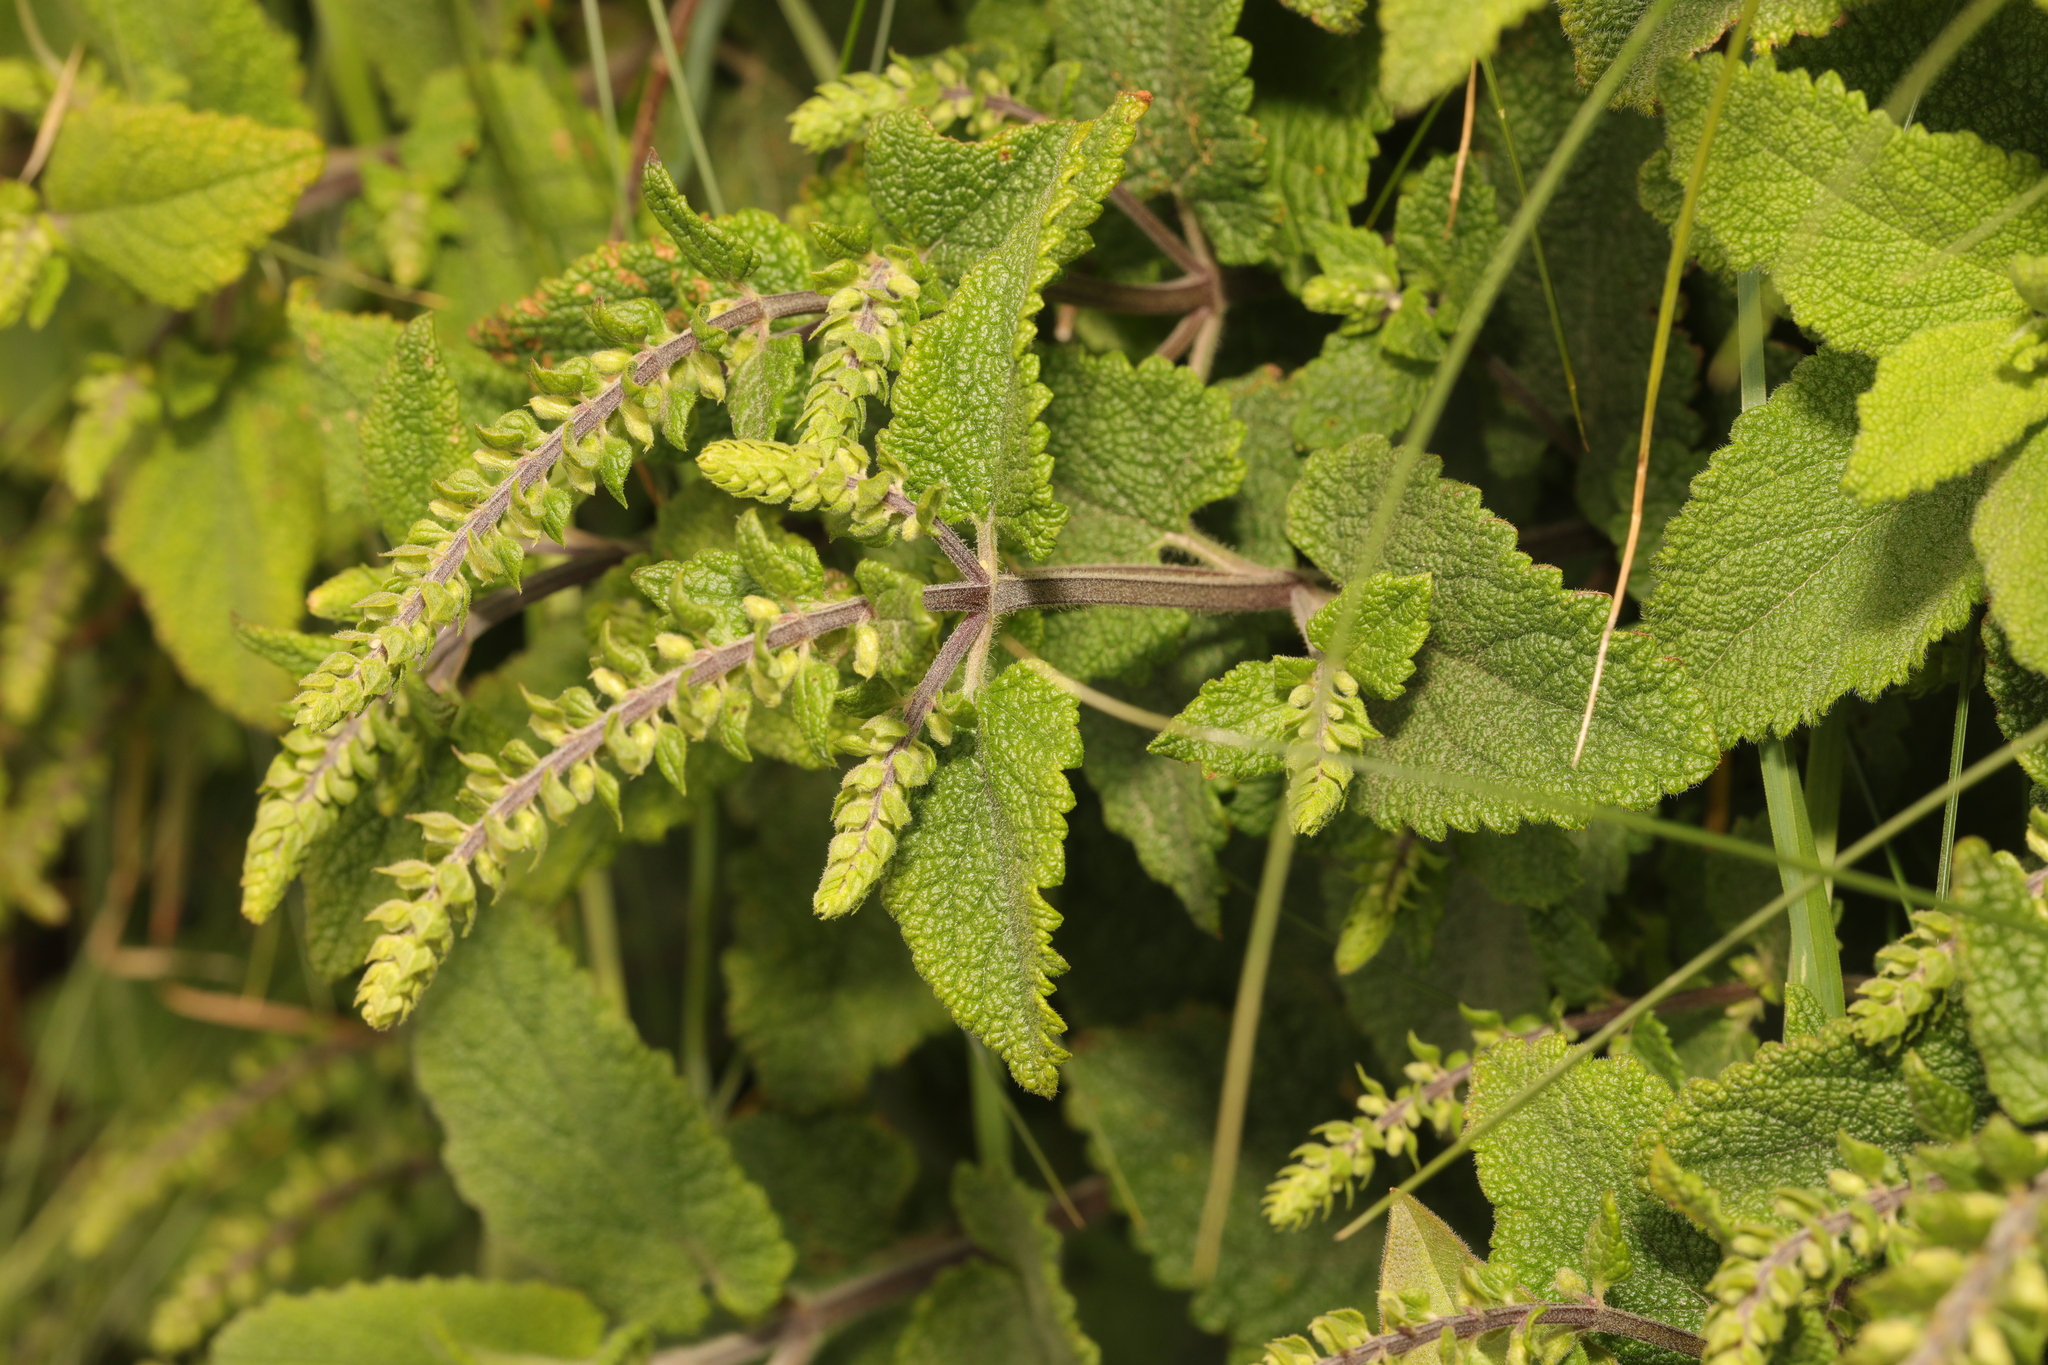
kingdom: Plantae
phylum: Tracheophyta
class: Magnoliopsida
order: Lamiales
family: Lamiaceae
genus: Teucrium
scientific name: Teucrium scorodonia
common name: Woodland germander
